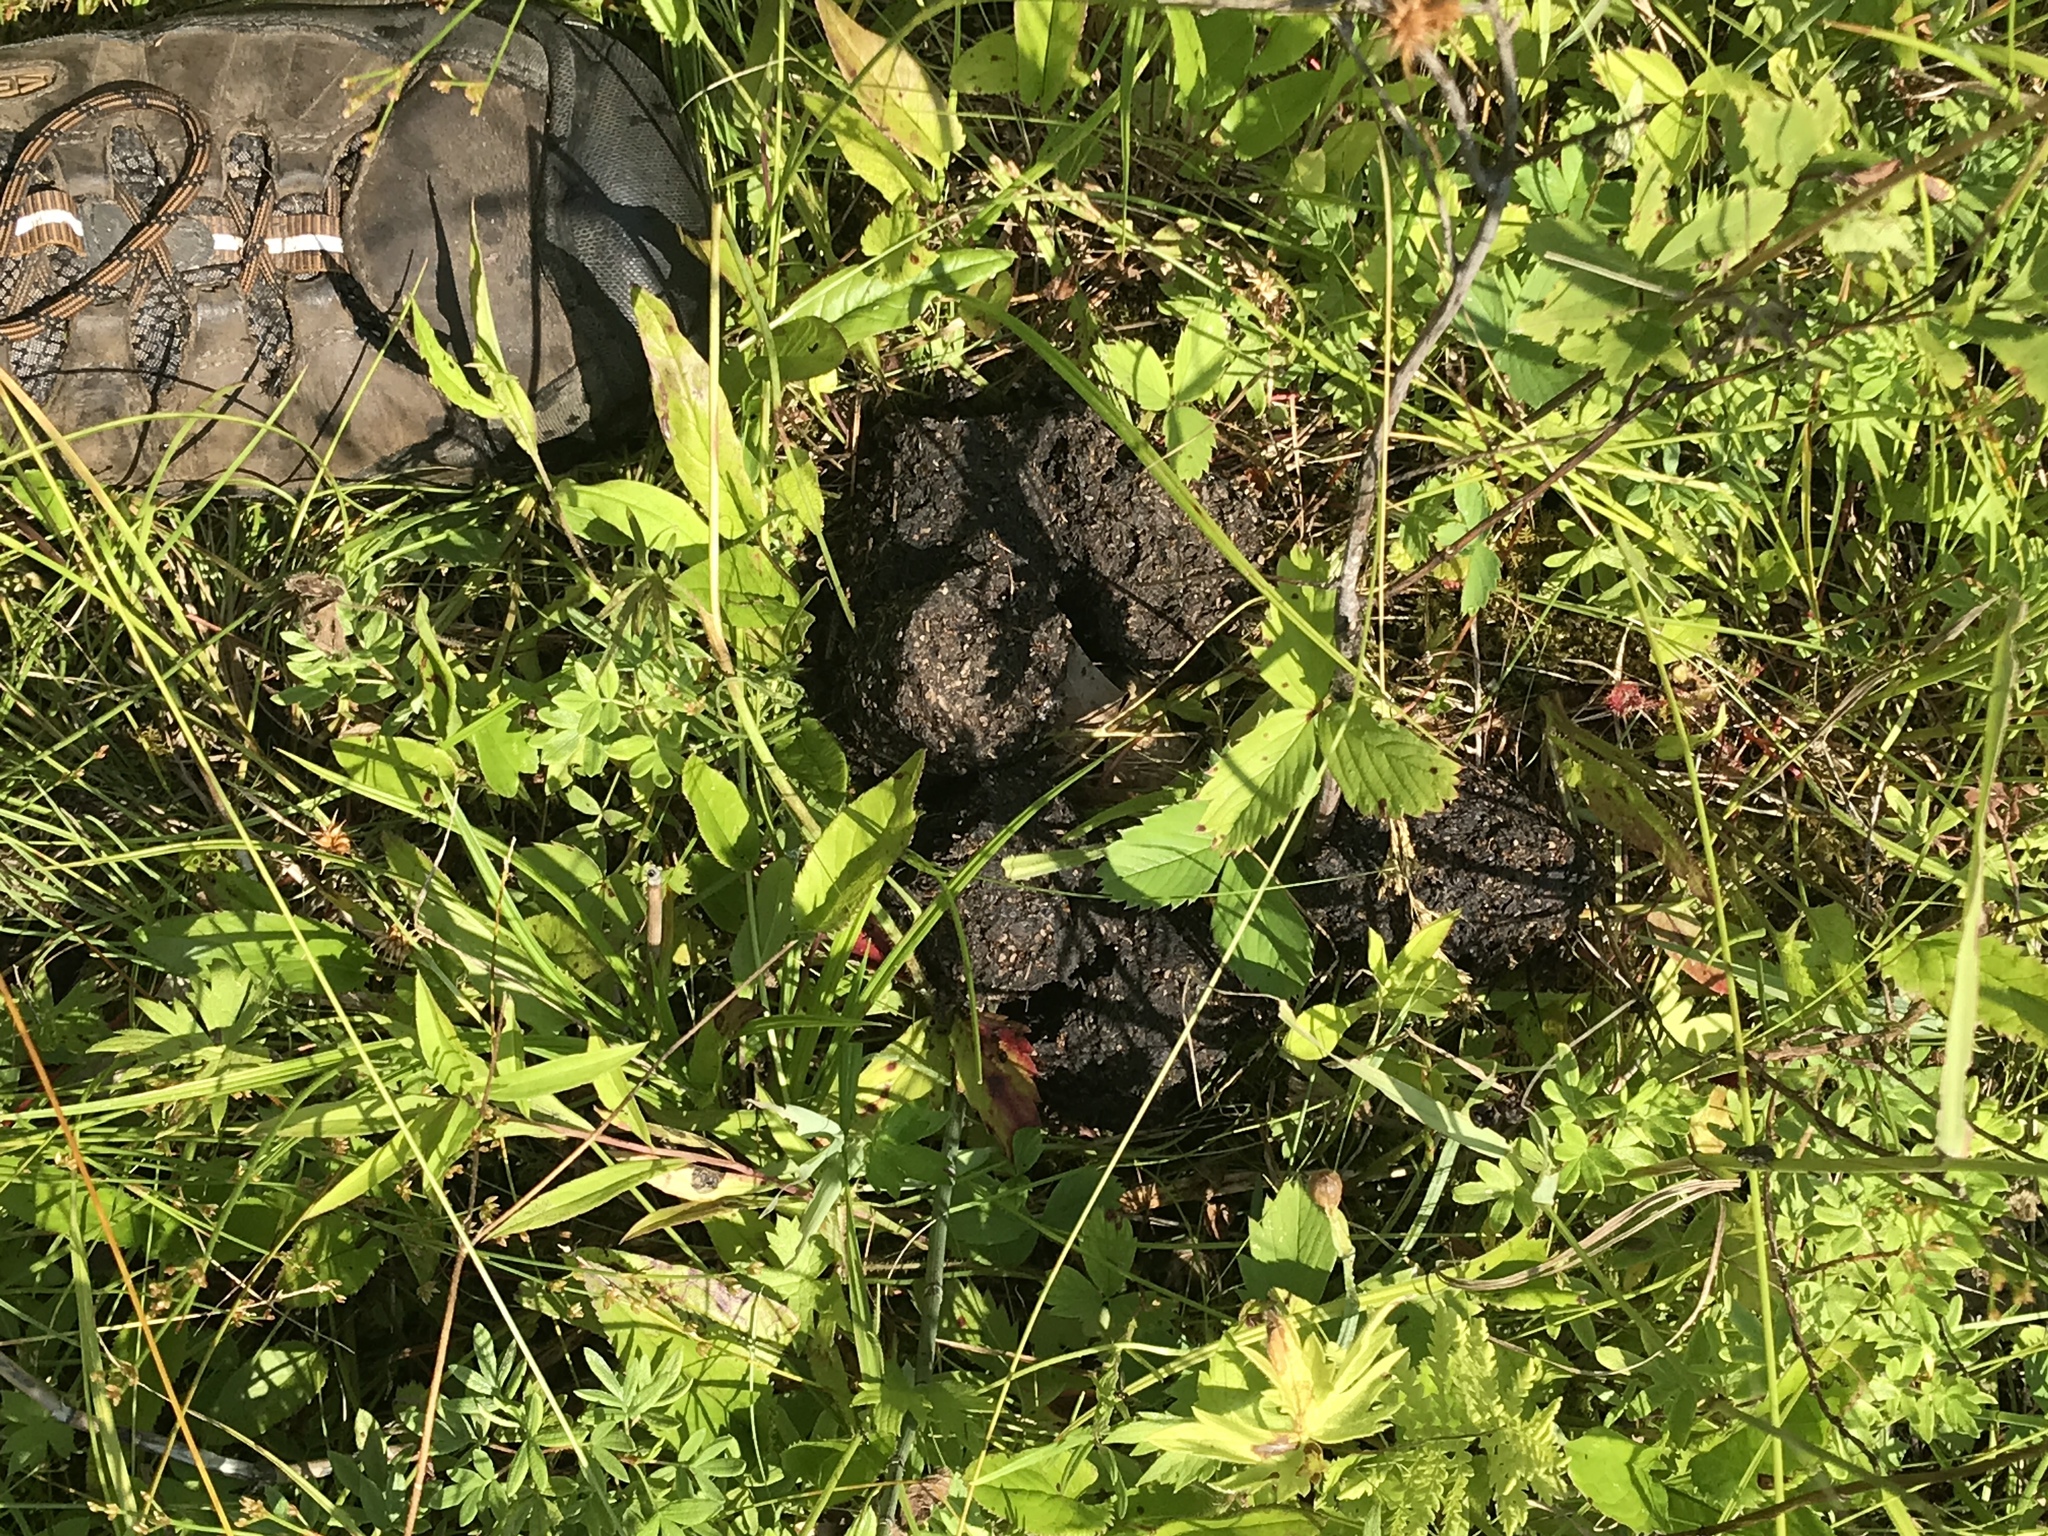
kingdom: Animalia
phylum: Chordata
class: Mammalia
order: Carnivora
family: Ursidae
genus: Ursus
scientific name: Ursus americanus
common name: American black bear
